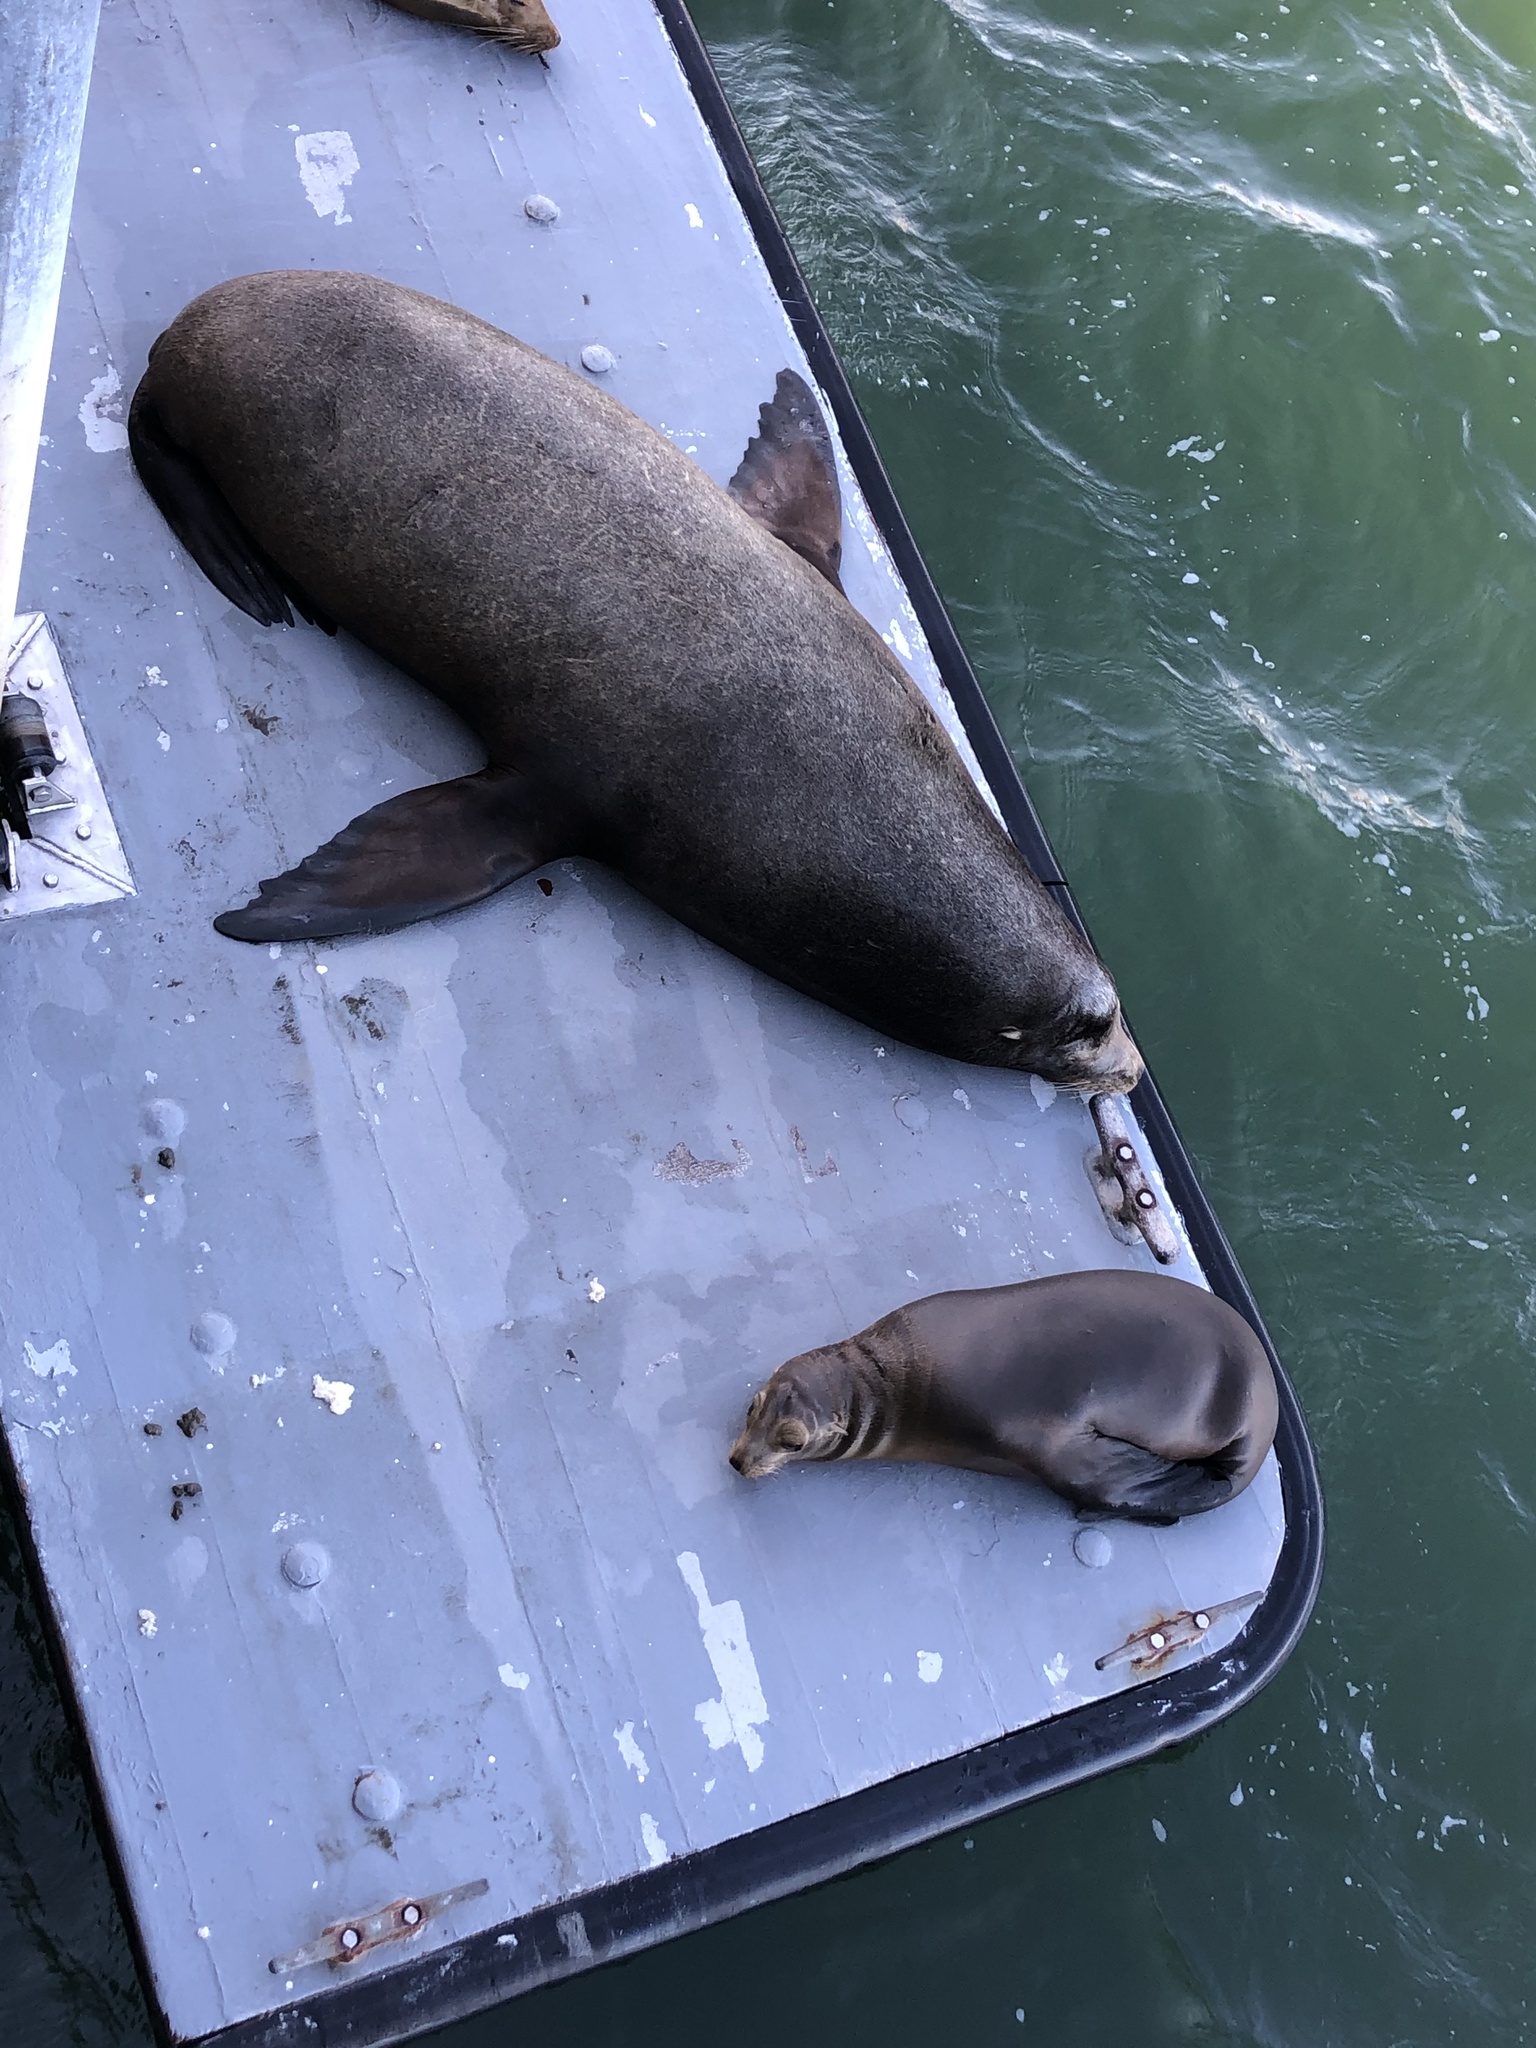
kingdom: Animalia
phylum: Chordata
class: Mammalia
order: Carnivora
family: Otariidae
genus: Zalophus
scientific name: Zalophus californianus
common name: California sea lion
